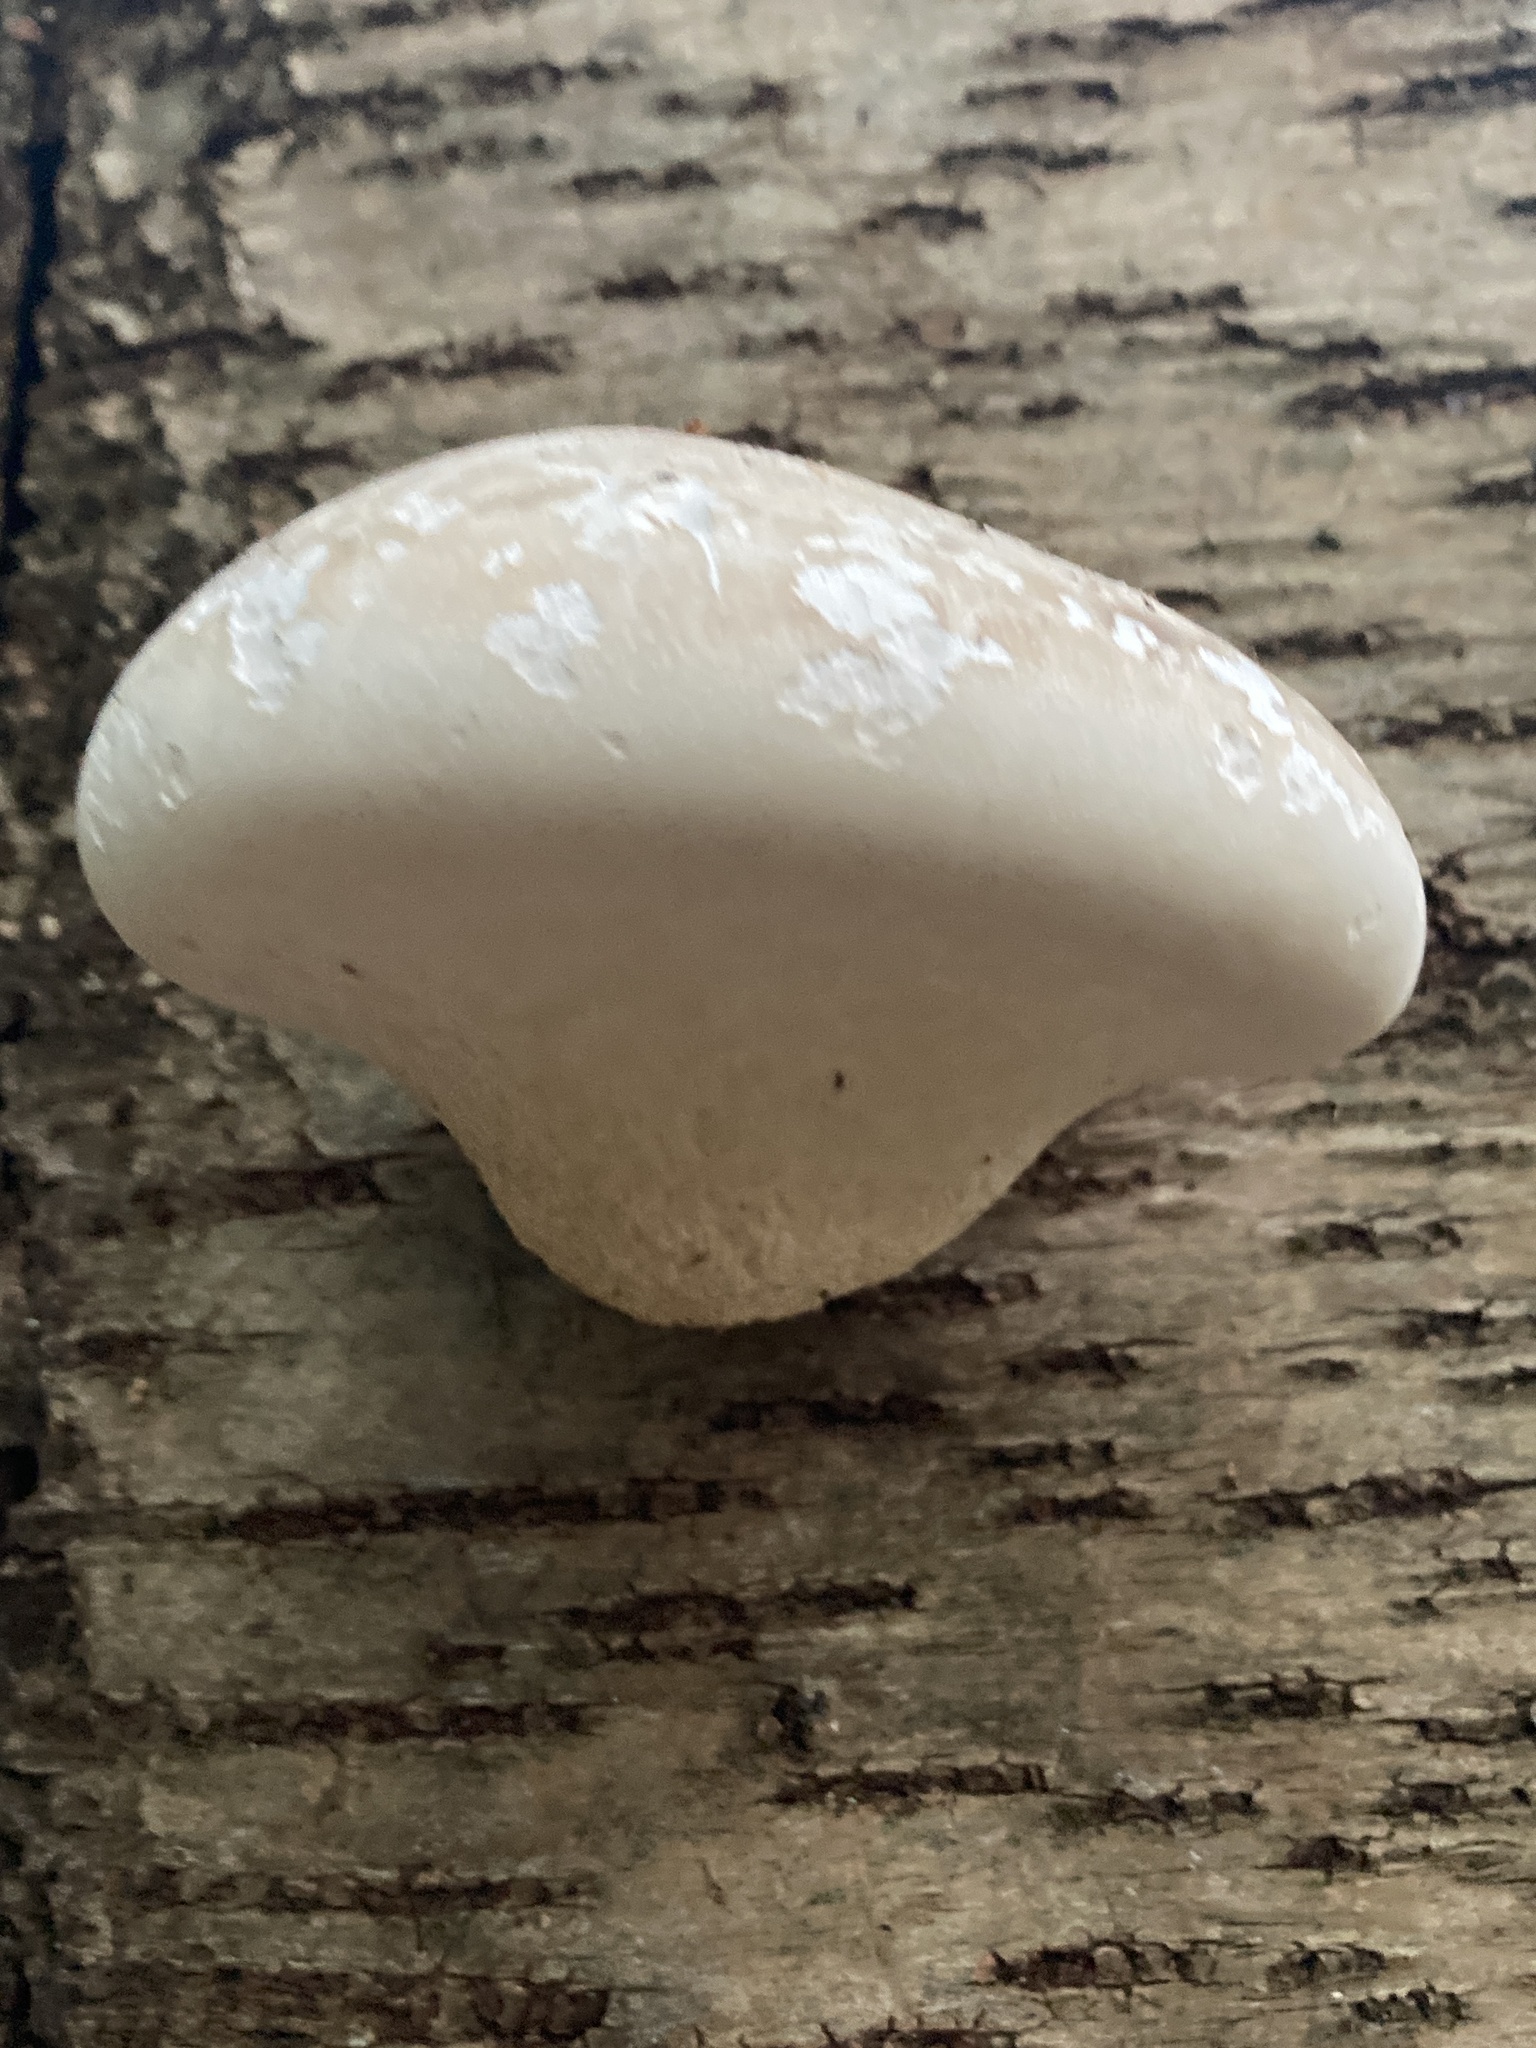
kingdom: Fungi
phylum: Basidiomycota
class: Agaricomycetes
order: Polyporales
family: Fomitopsidaceae
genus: Fomitopsis
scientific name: Fomitopsis betulina
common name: Birch polypore
